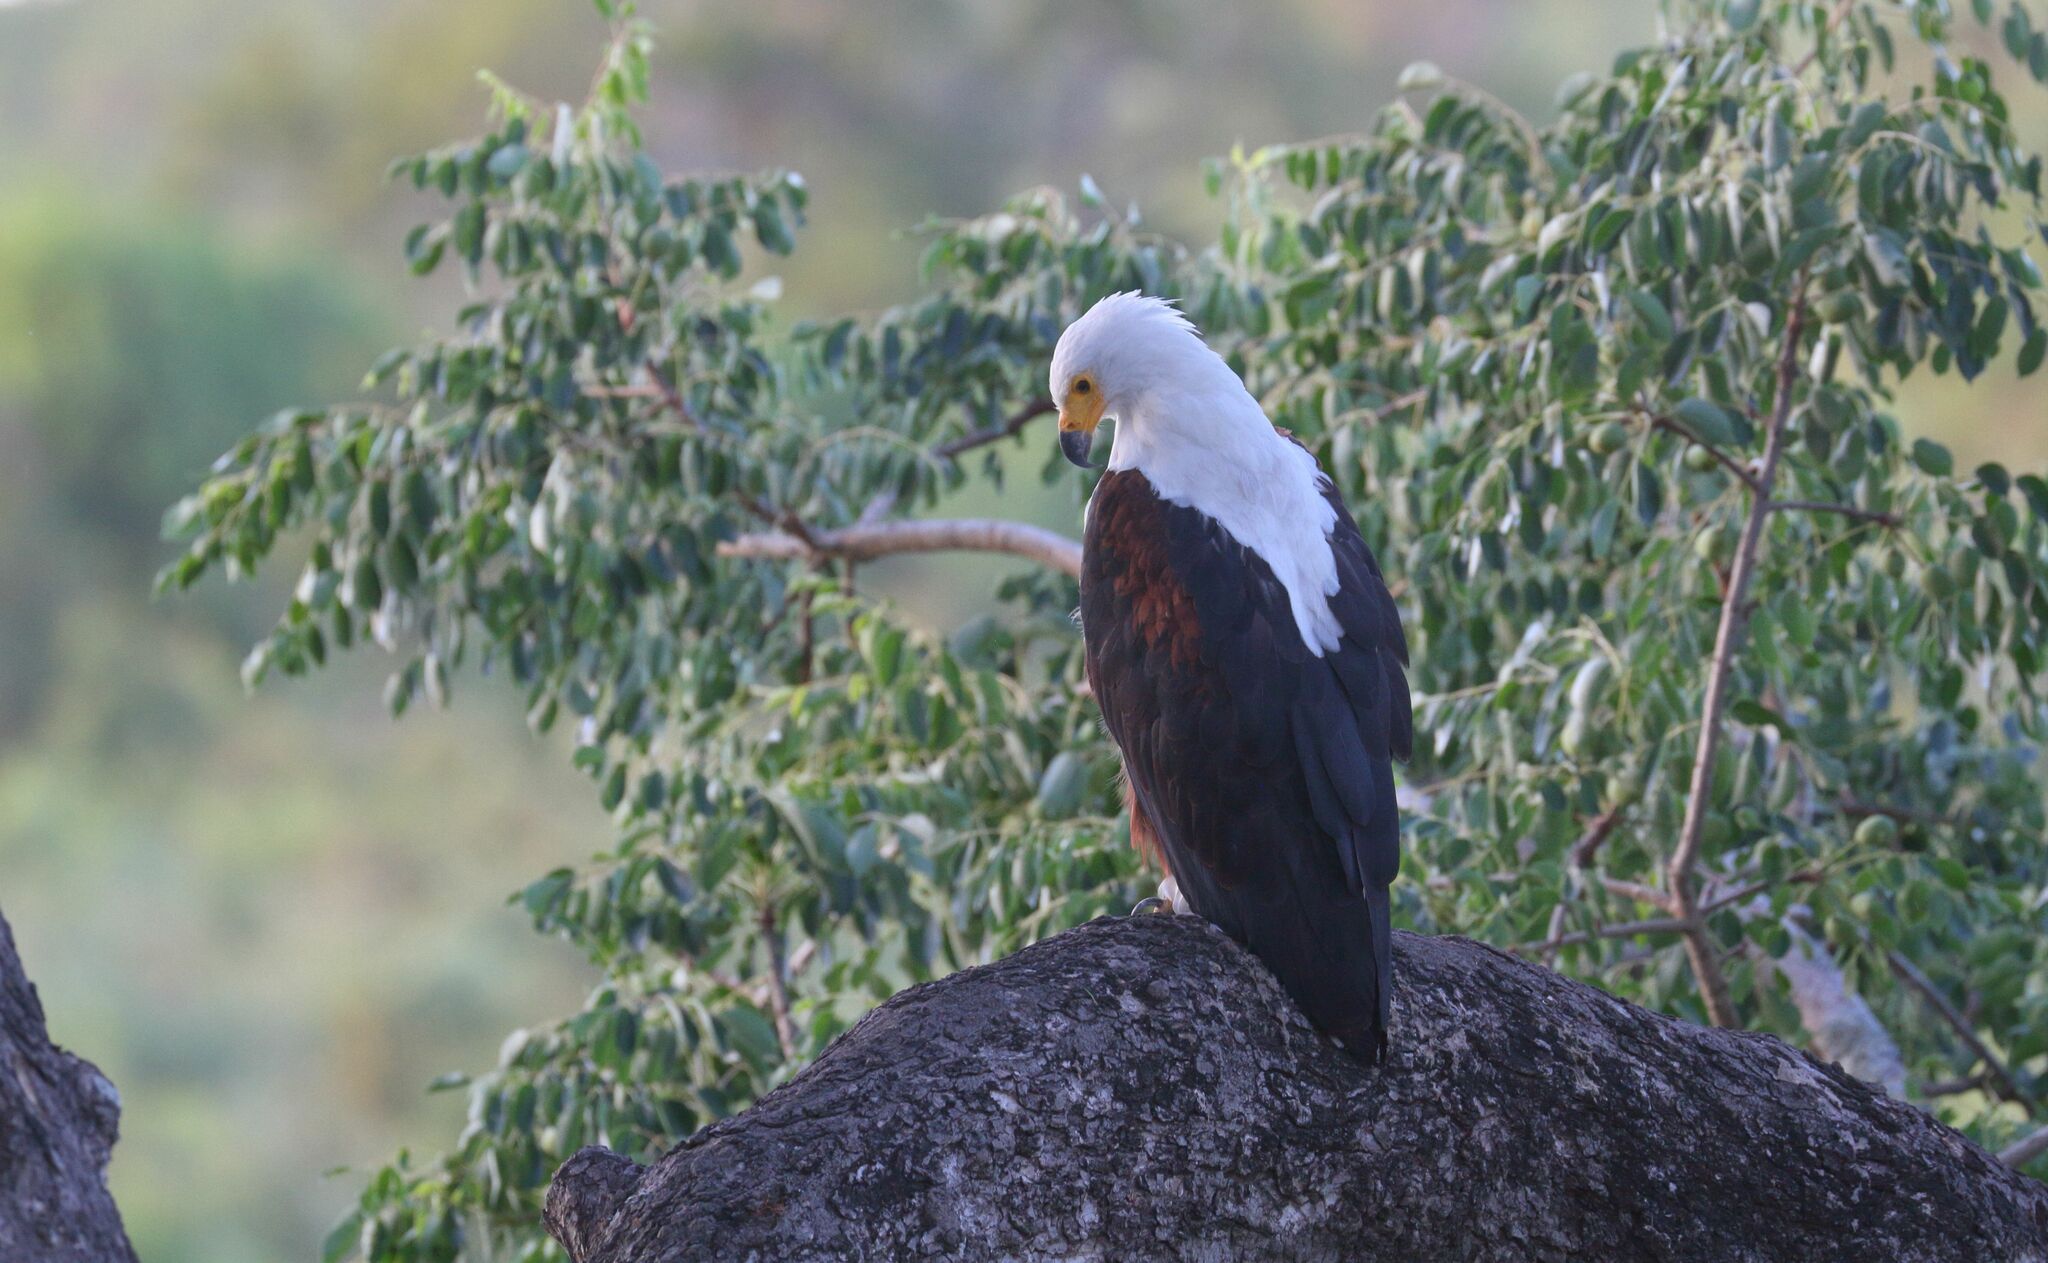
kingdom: Animalia
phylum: Chordata
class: Aves
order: Accipitriformes
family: Accipitridae
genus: Haliaeetus
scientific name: Haliaeetus vocifer
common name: African fish eagle
